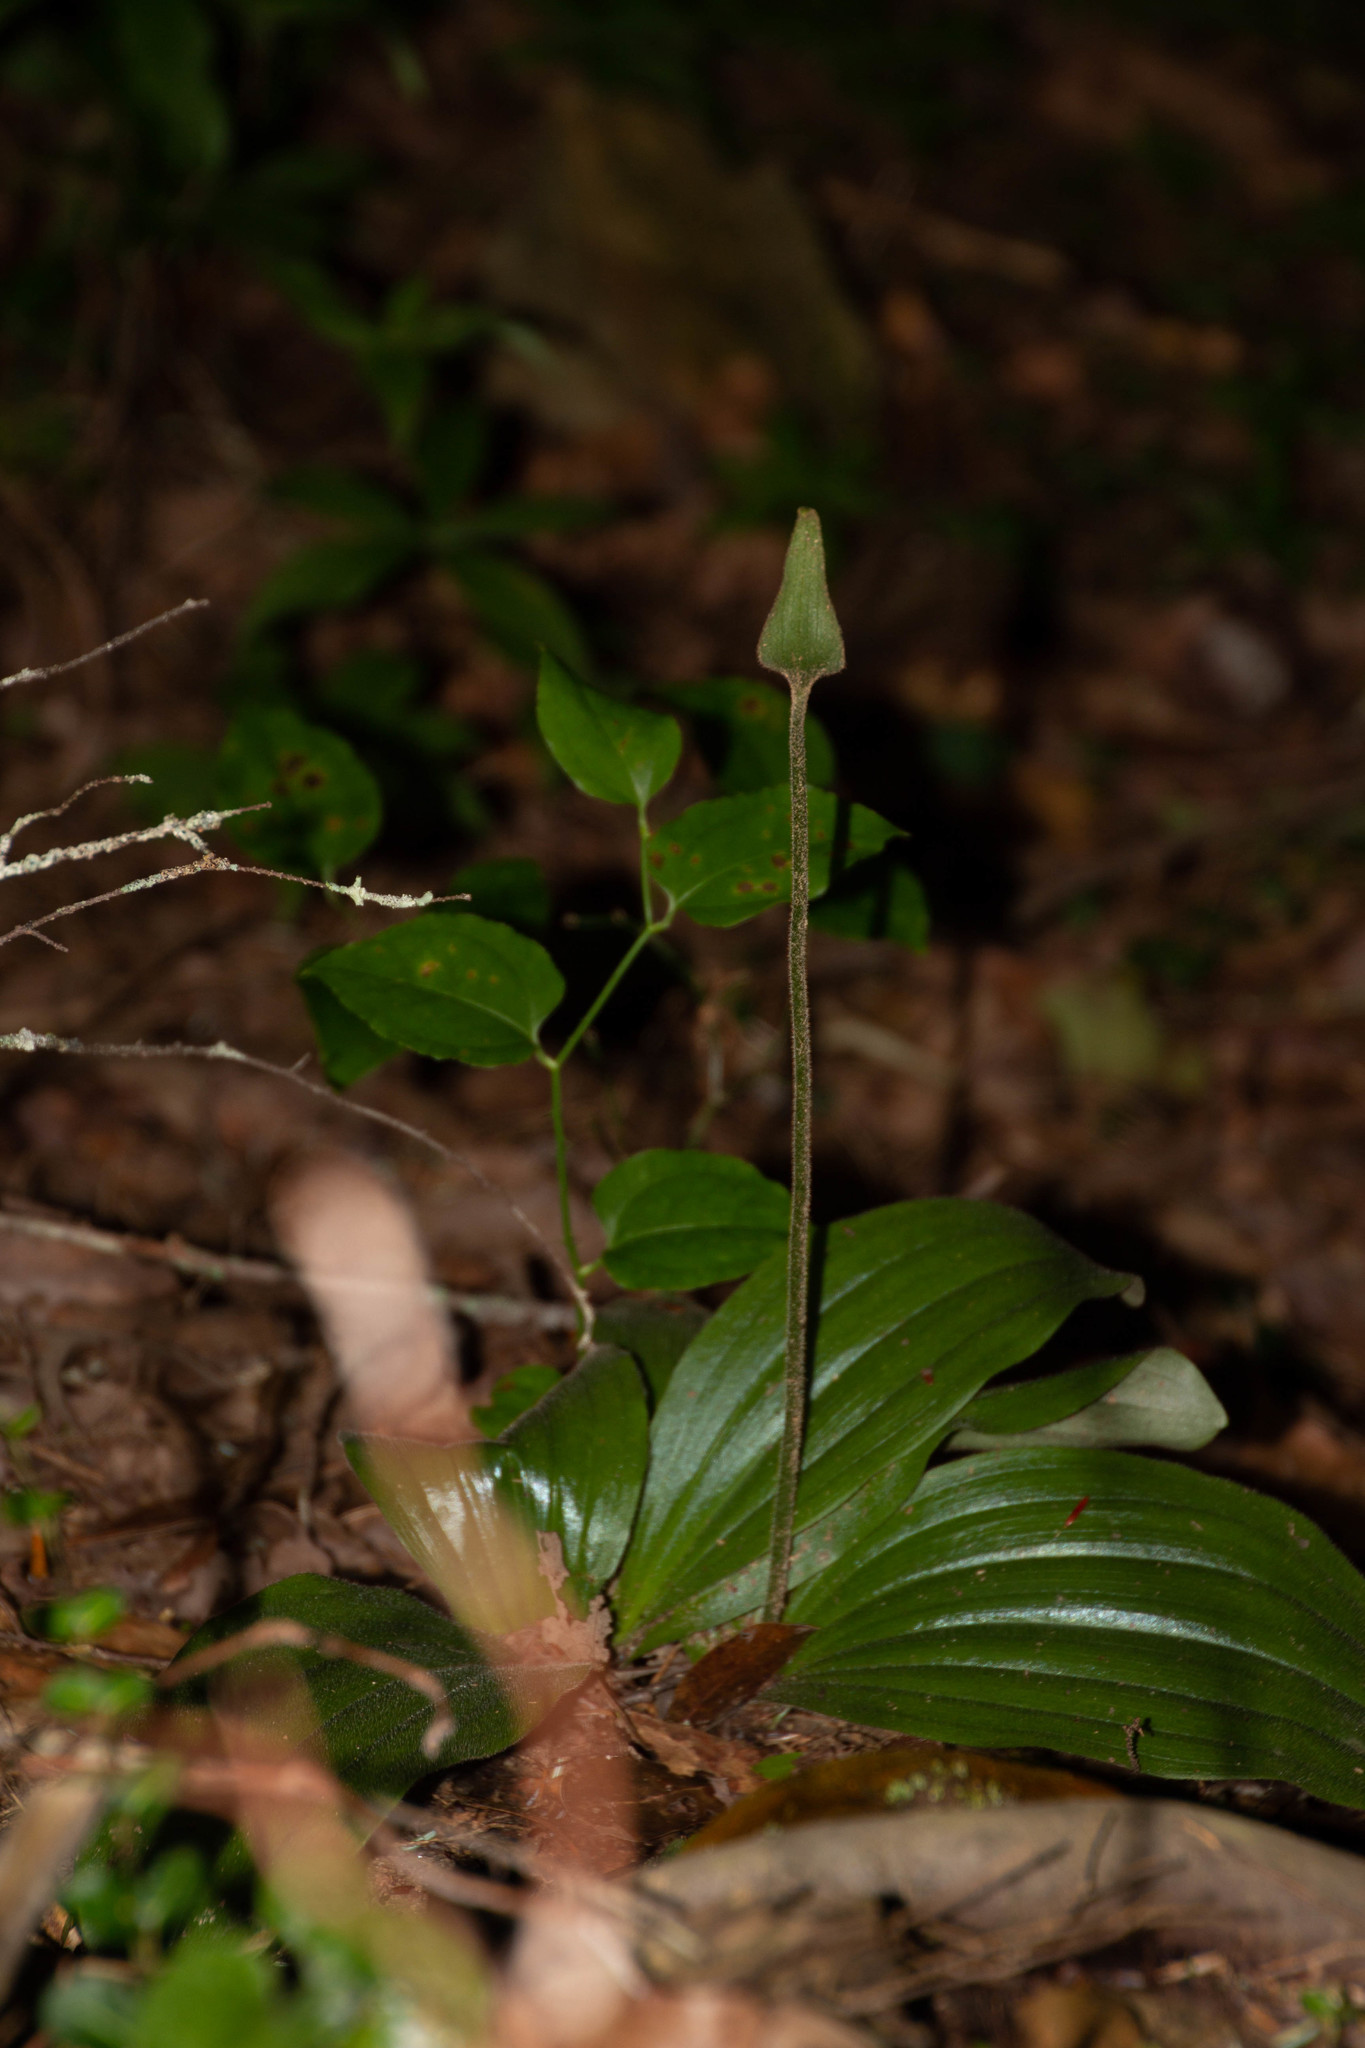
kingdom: Plantae
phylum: Tracheophyta
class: Liliopsida
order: Asparagales
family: Orchidaceae
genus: Cypripedium
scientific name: Cypripedium acaule
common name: Pink lady's-slipper
